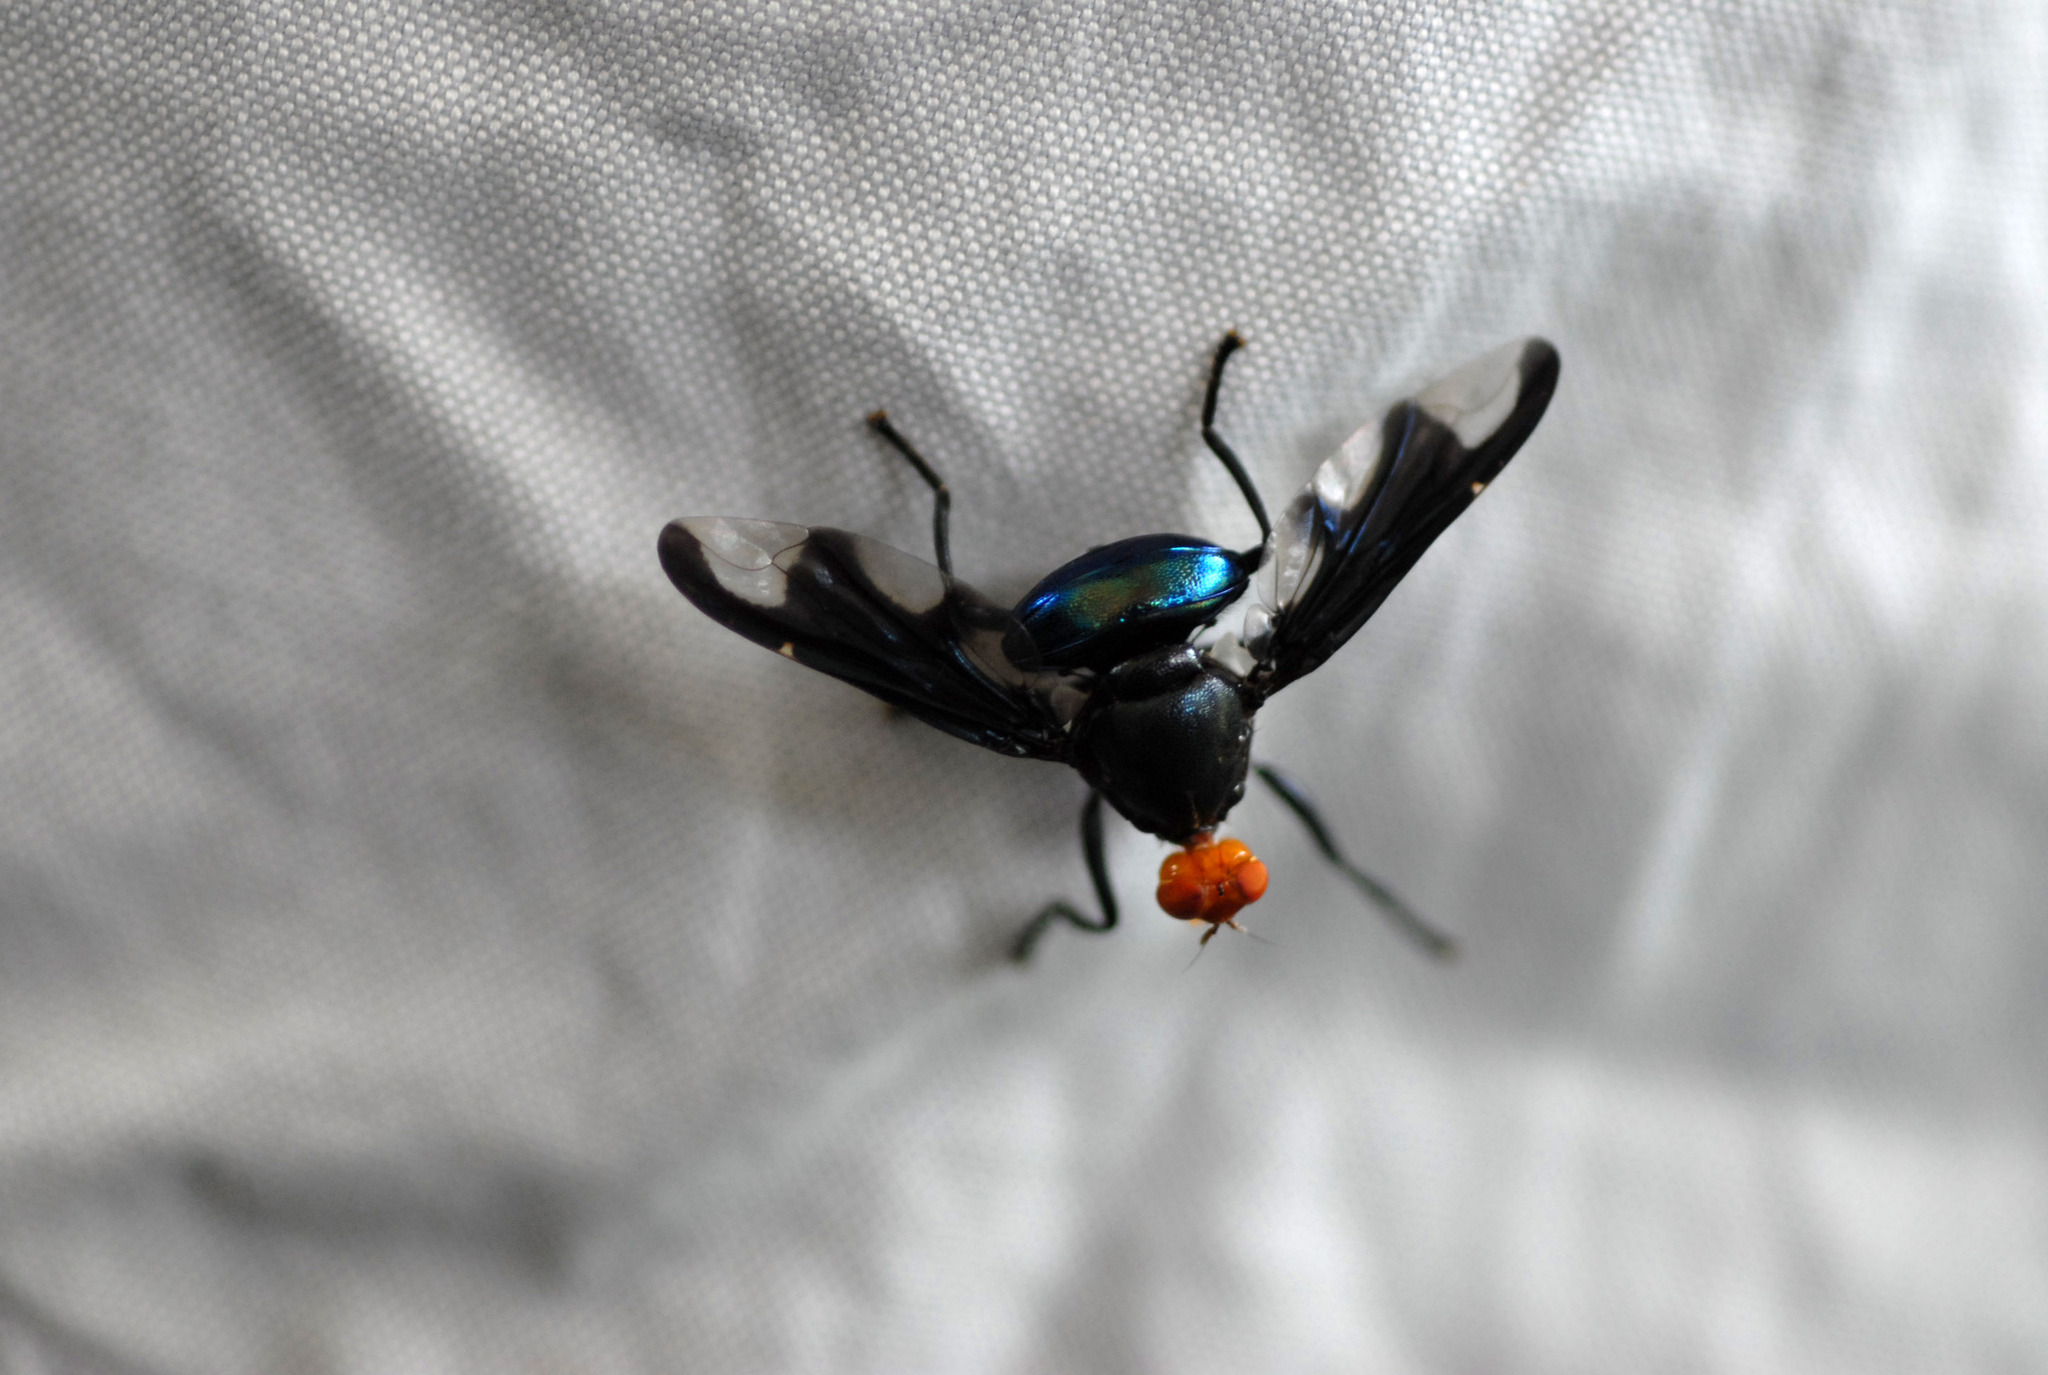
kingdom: Animalia
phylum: Arthropoda
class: Insecta
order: Diptera
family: Platystomatidae
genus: Loxonevra
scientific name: Loxonevra formosae
